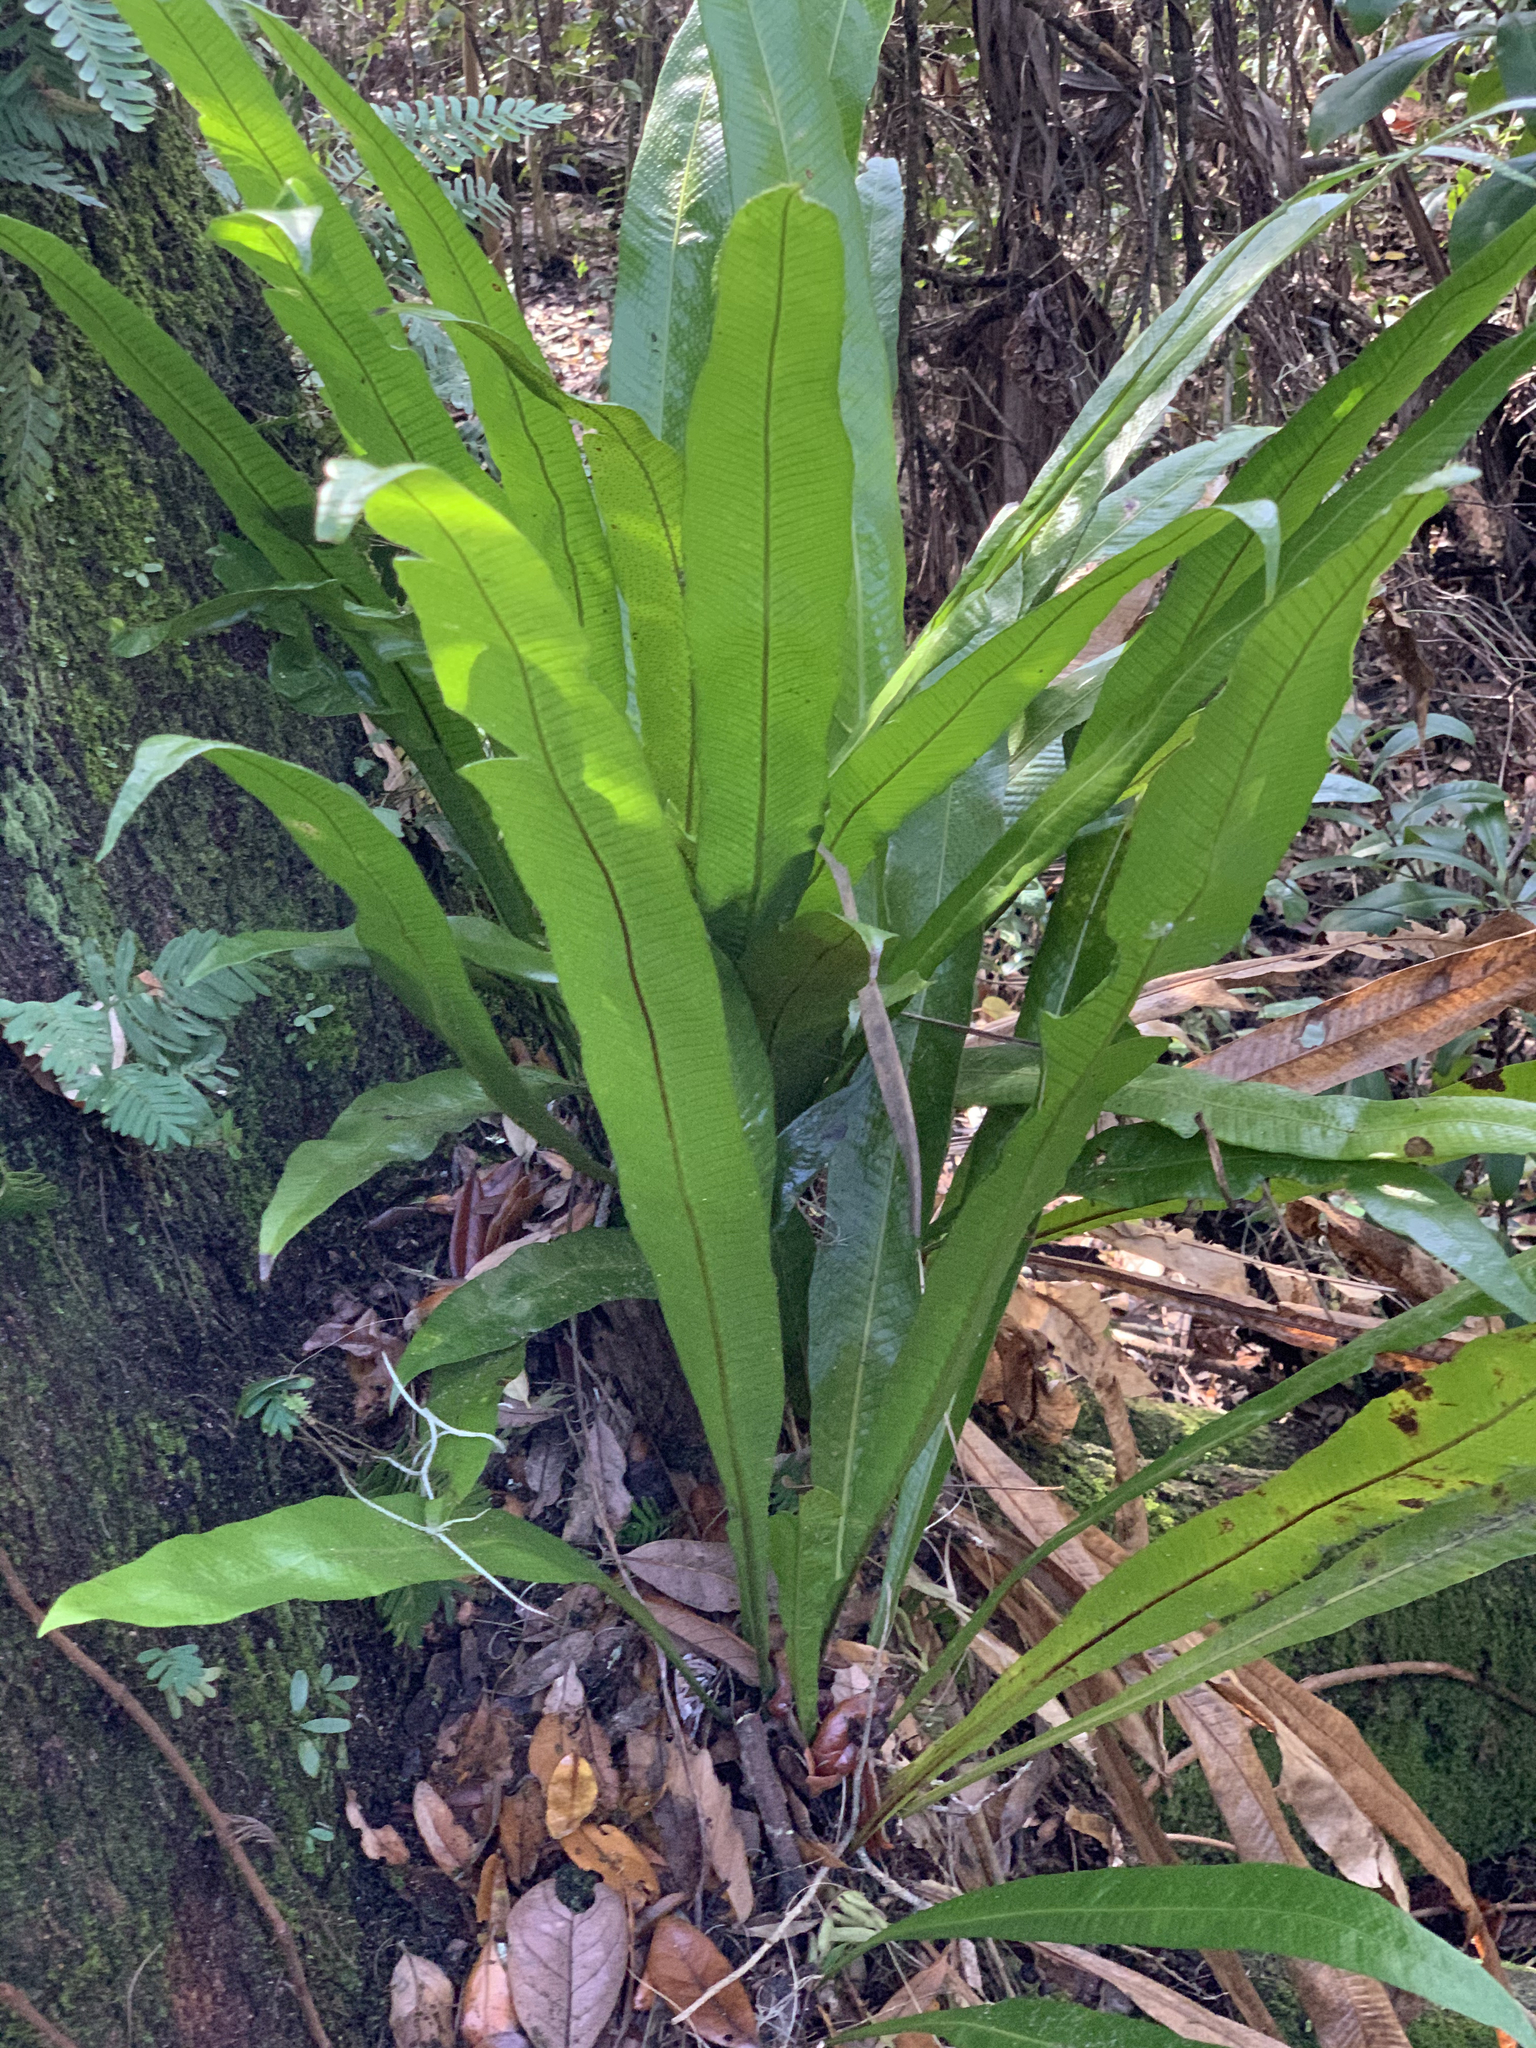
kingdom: Plantae
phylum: Tracheophyta
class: Polypodiopsida
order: Polypodiales
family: Polypodiaceae
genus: Campyloneurum
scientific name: Campyloneurum phyllitidis
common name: Cow-tongue fern
